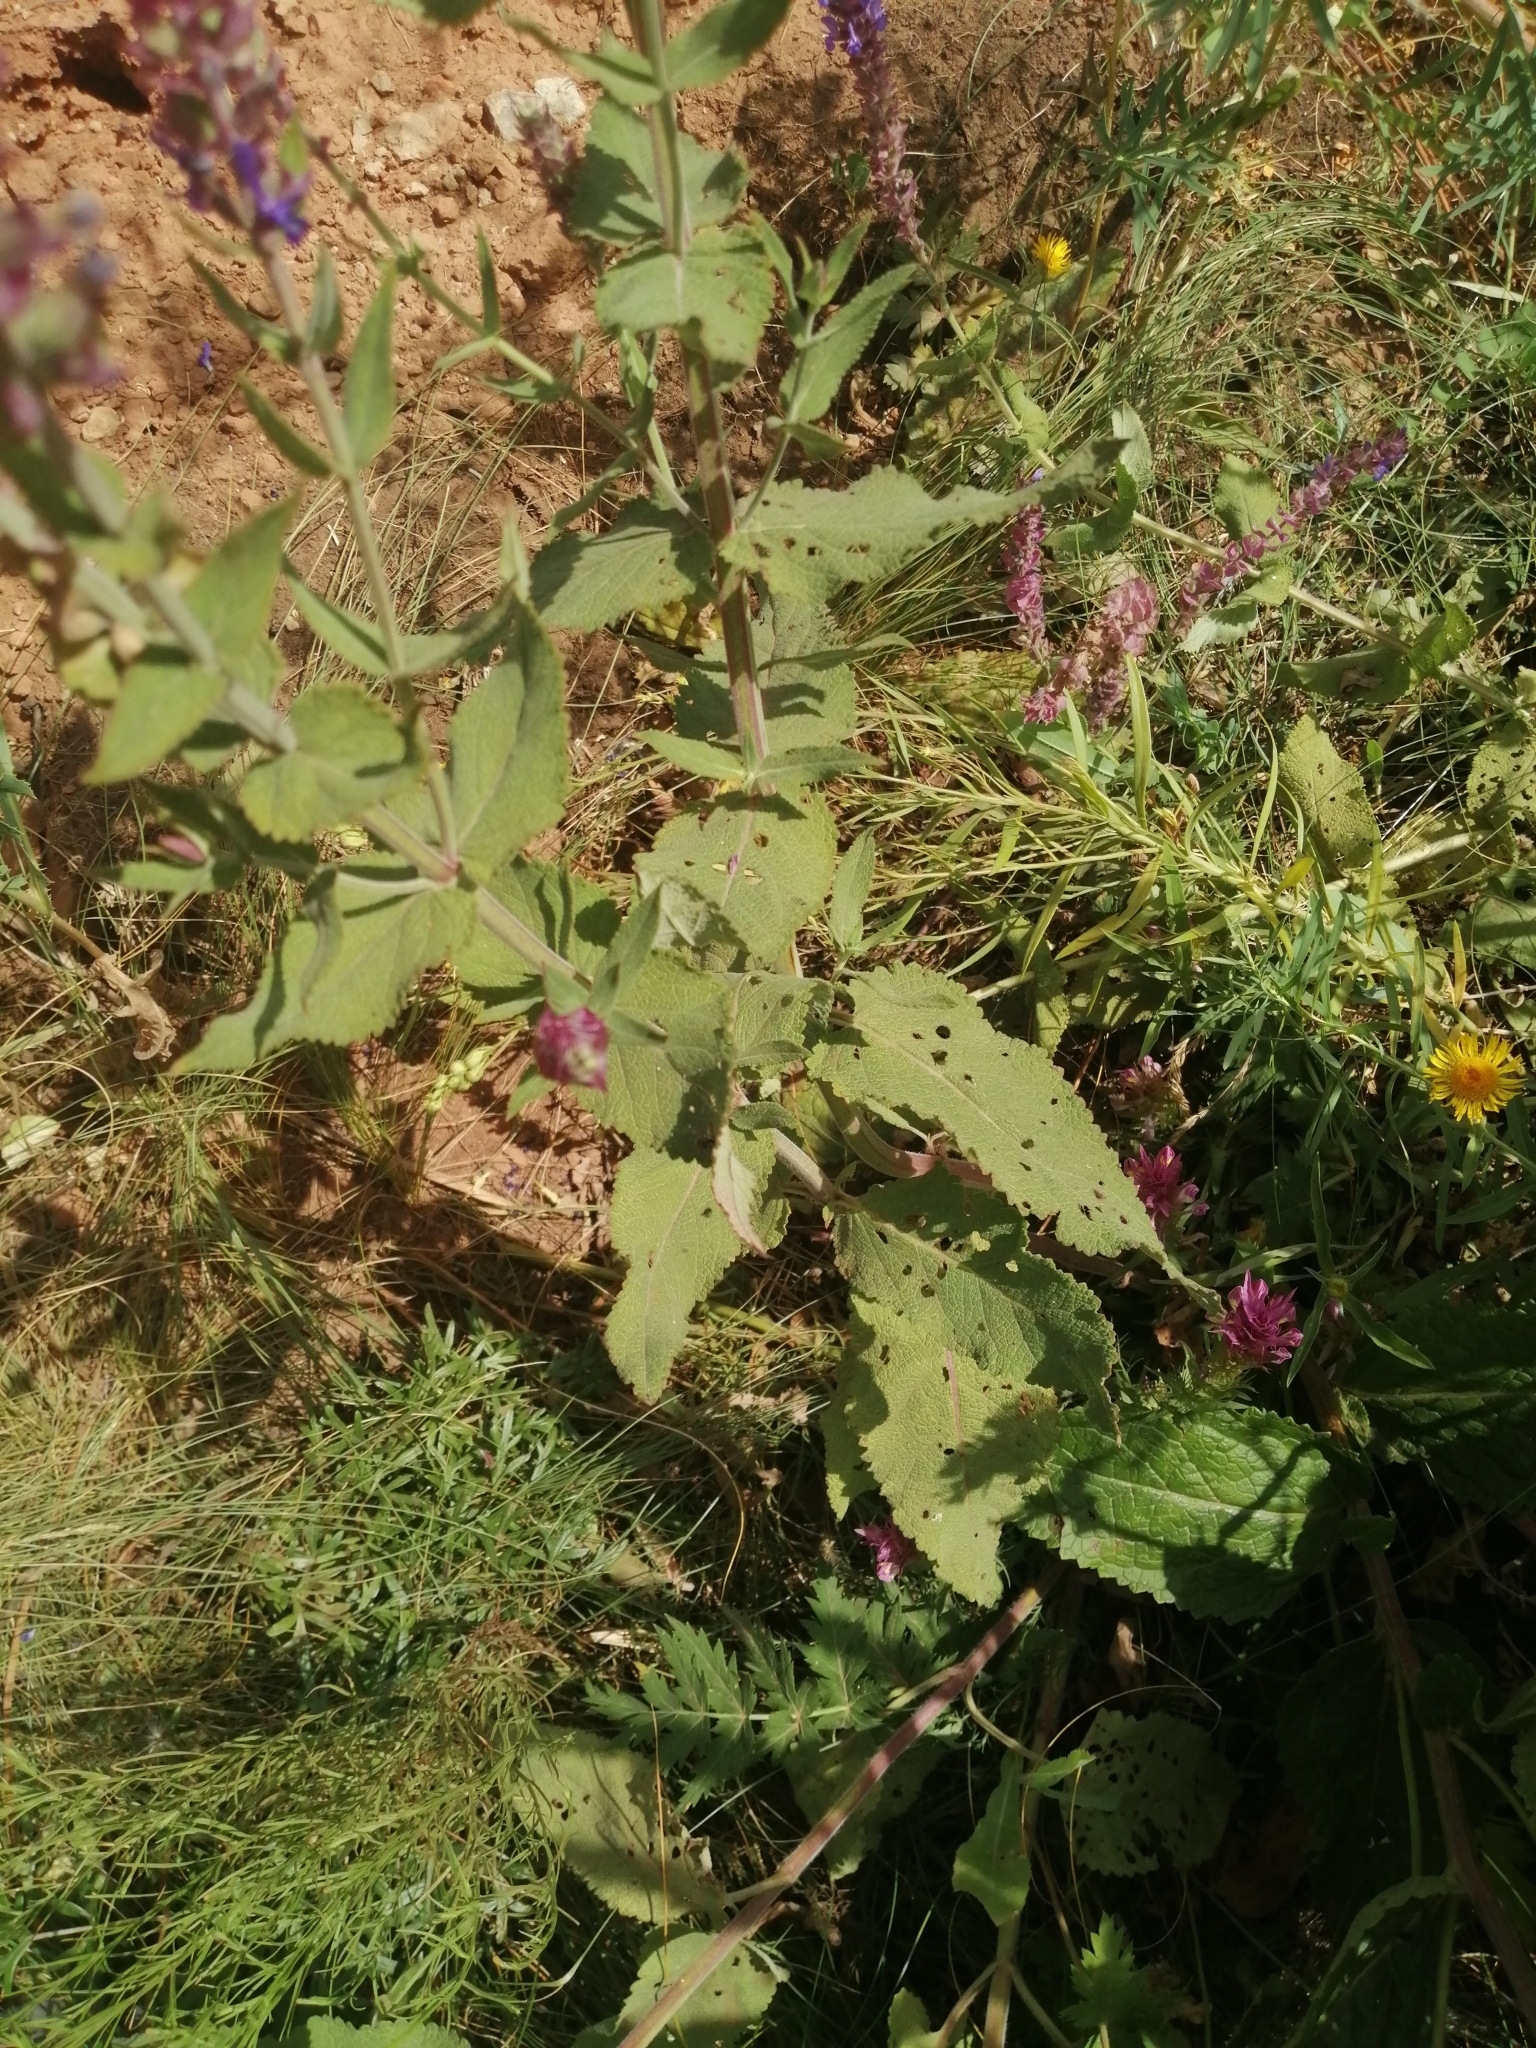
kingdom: Plantae
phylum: Tracheophyta
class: Magnoliopsida
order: Lamiales
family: Lamiaceae
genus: Salvia
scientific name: Salvia nemorosa
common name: Balkan clary
